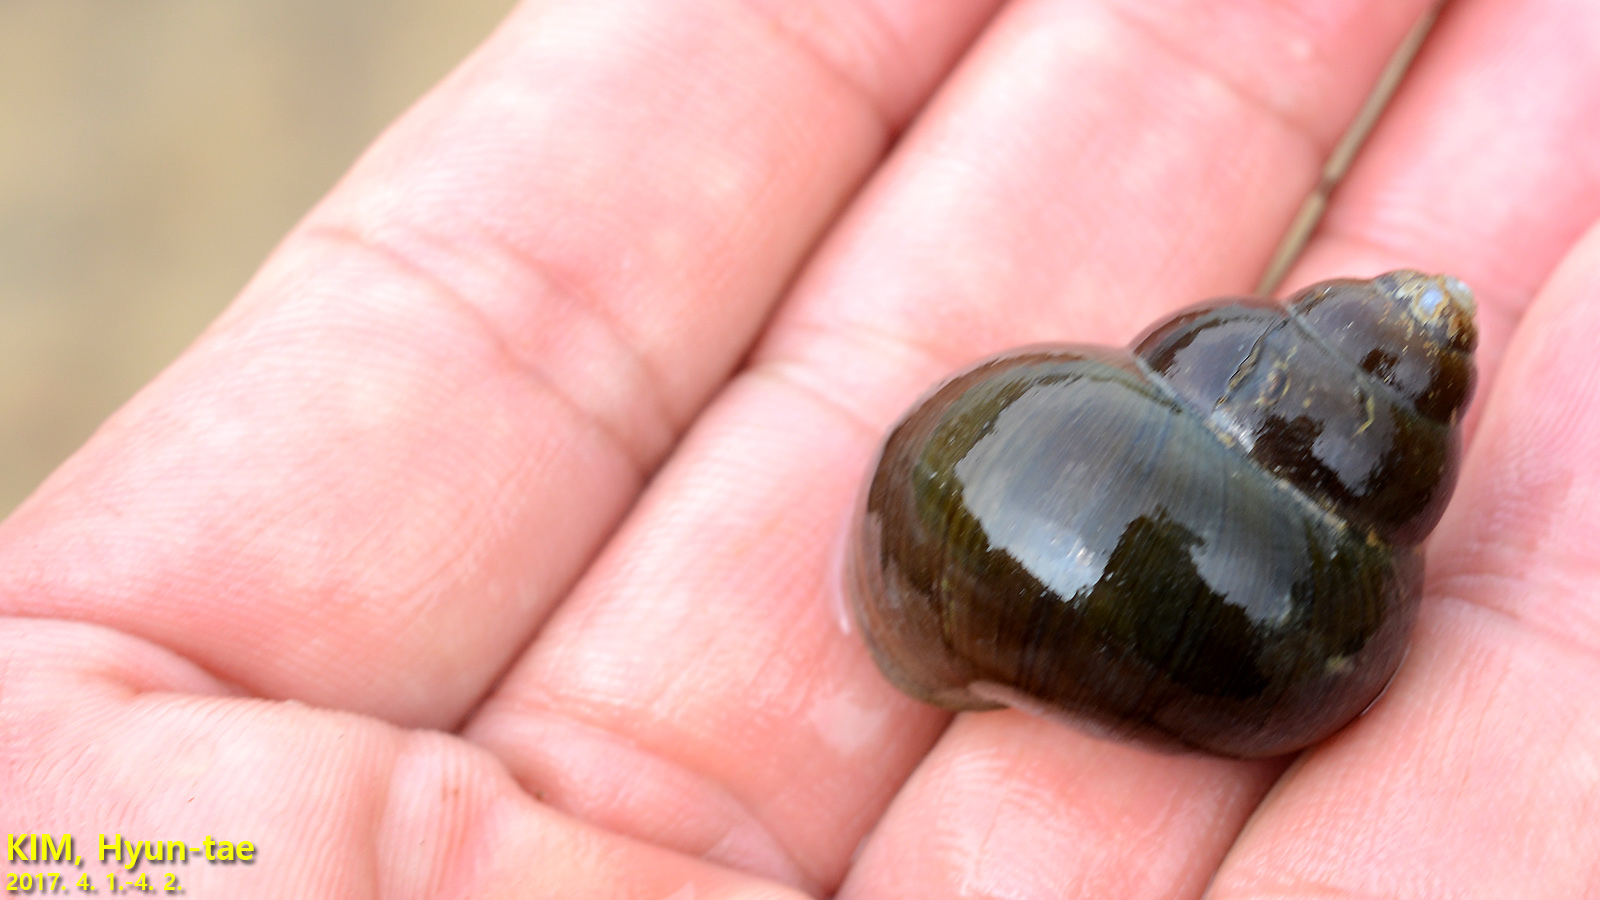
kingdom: Animalia
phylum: Mollusca
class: Gastropoda
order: Architaenioglossa
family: Viviparidae
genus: Cipangopaludina
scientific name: Cipangopaludina chinensis
